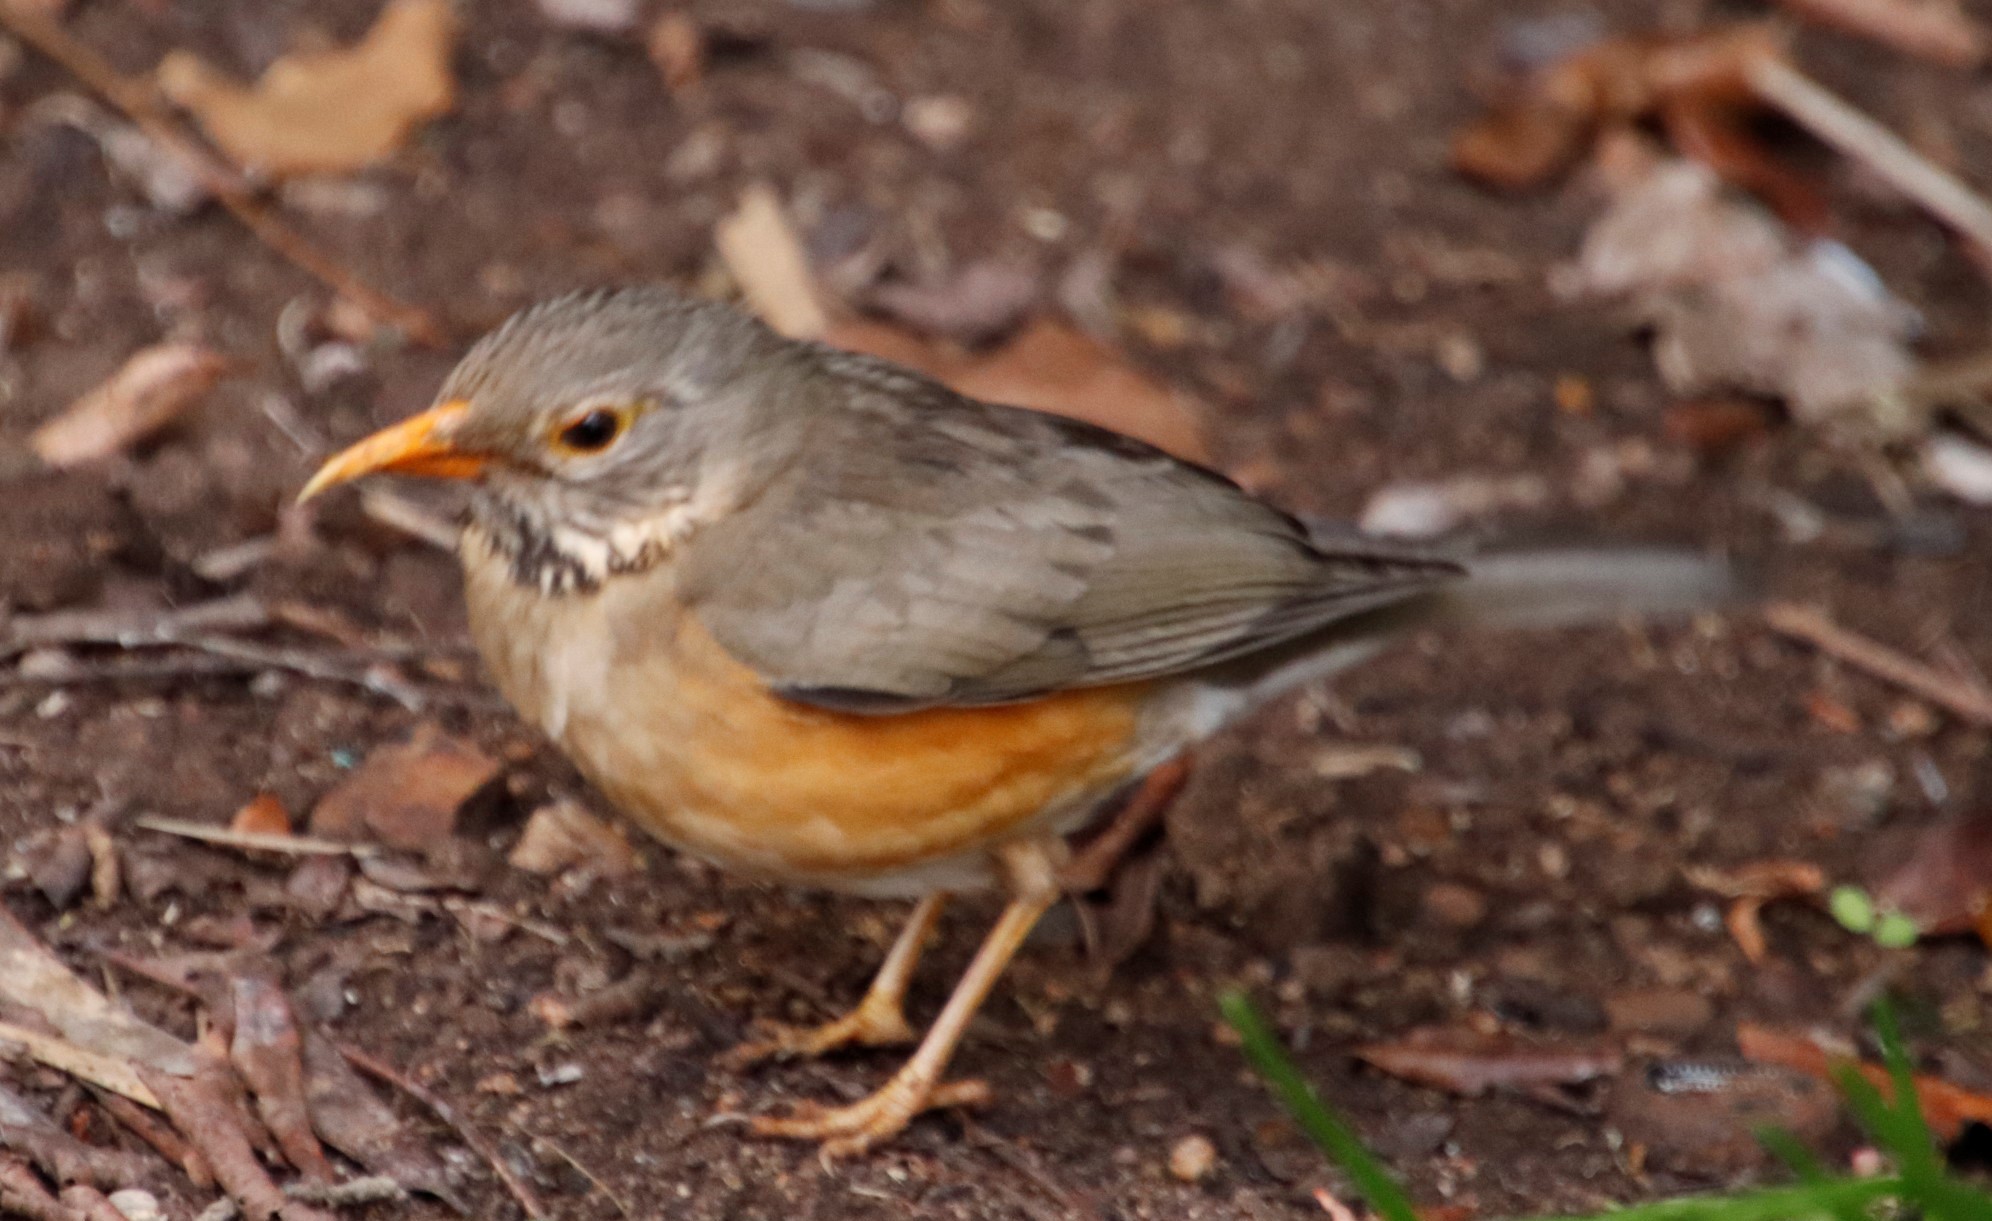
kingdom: Animalia
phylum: Chordata
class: Aves
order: Passeriformes
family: Turdidae
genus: Turdus
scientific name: Turdus libonyana
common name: Kurrichane thrush
